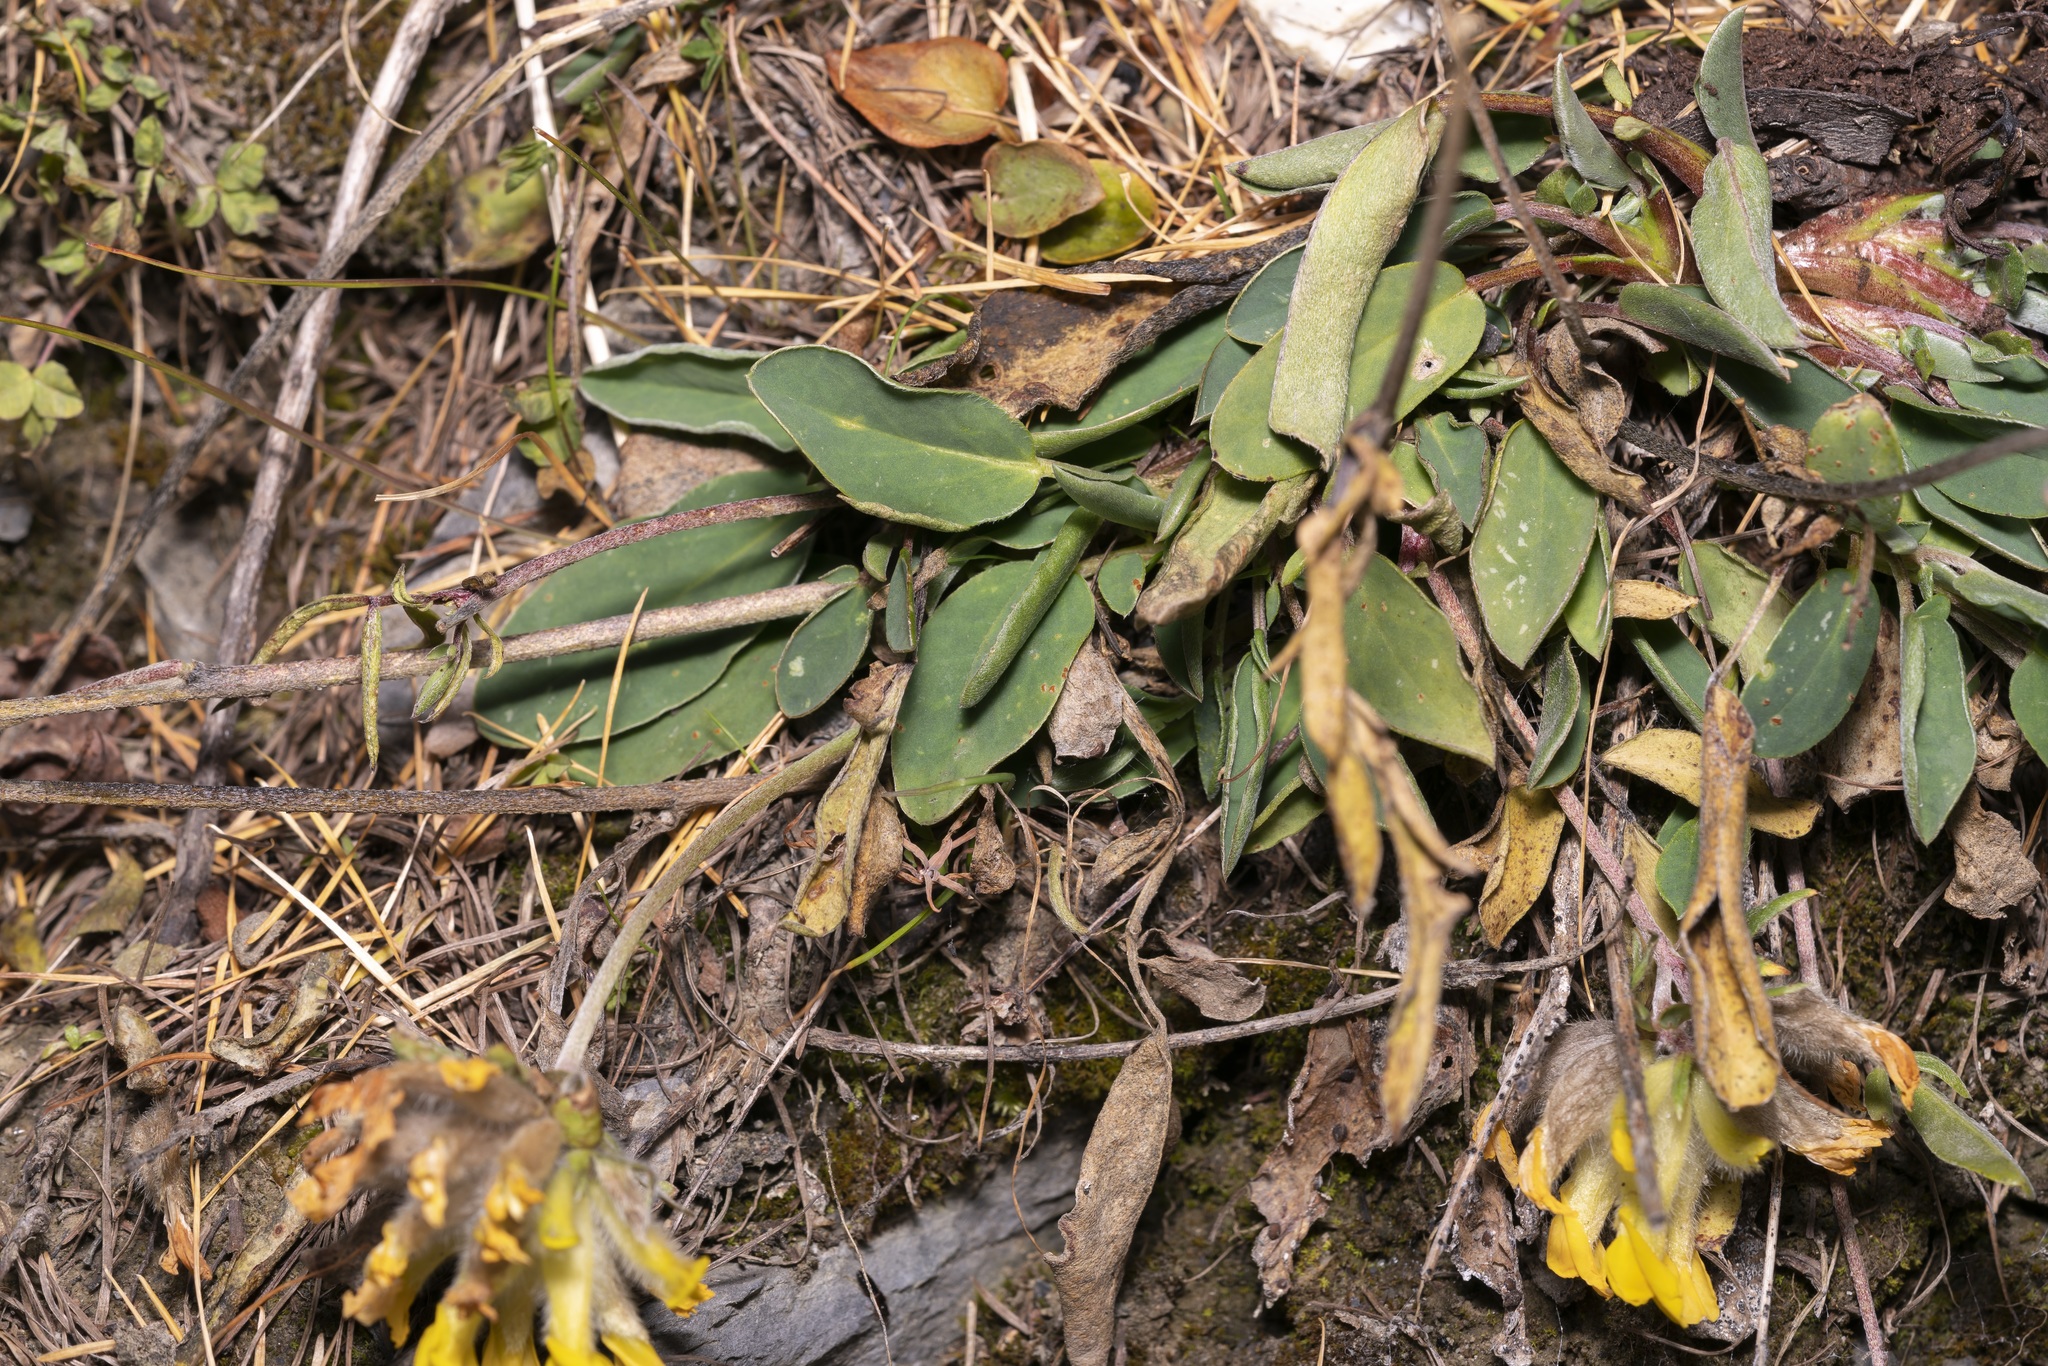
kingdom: Plantae
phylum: Tracheophyta
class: Magnoliopsida
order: Fabales
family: Fabaceae
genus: Anthyllis
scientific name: Anthyllis vulneraria
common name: Kidney vetch
